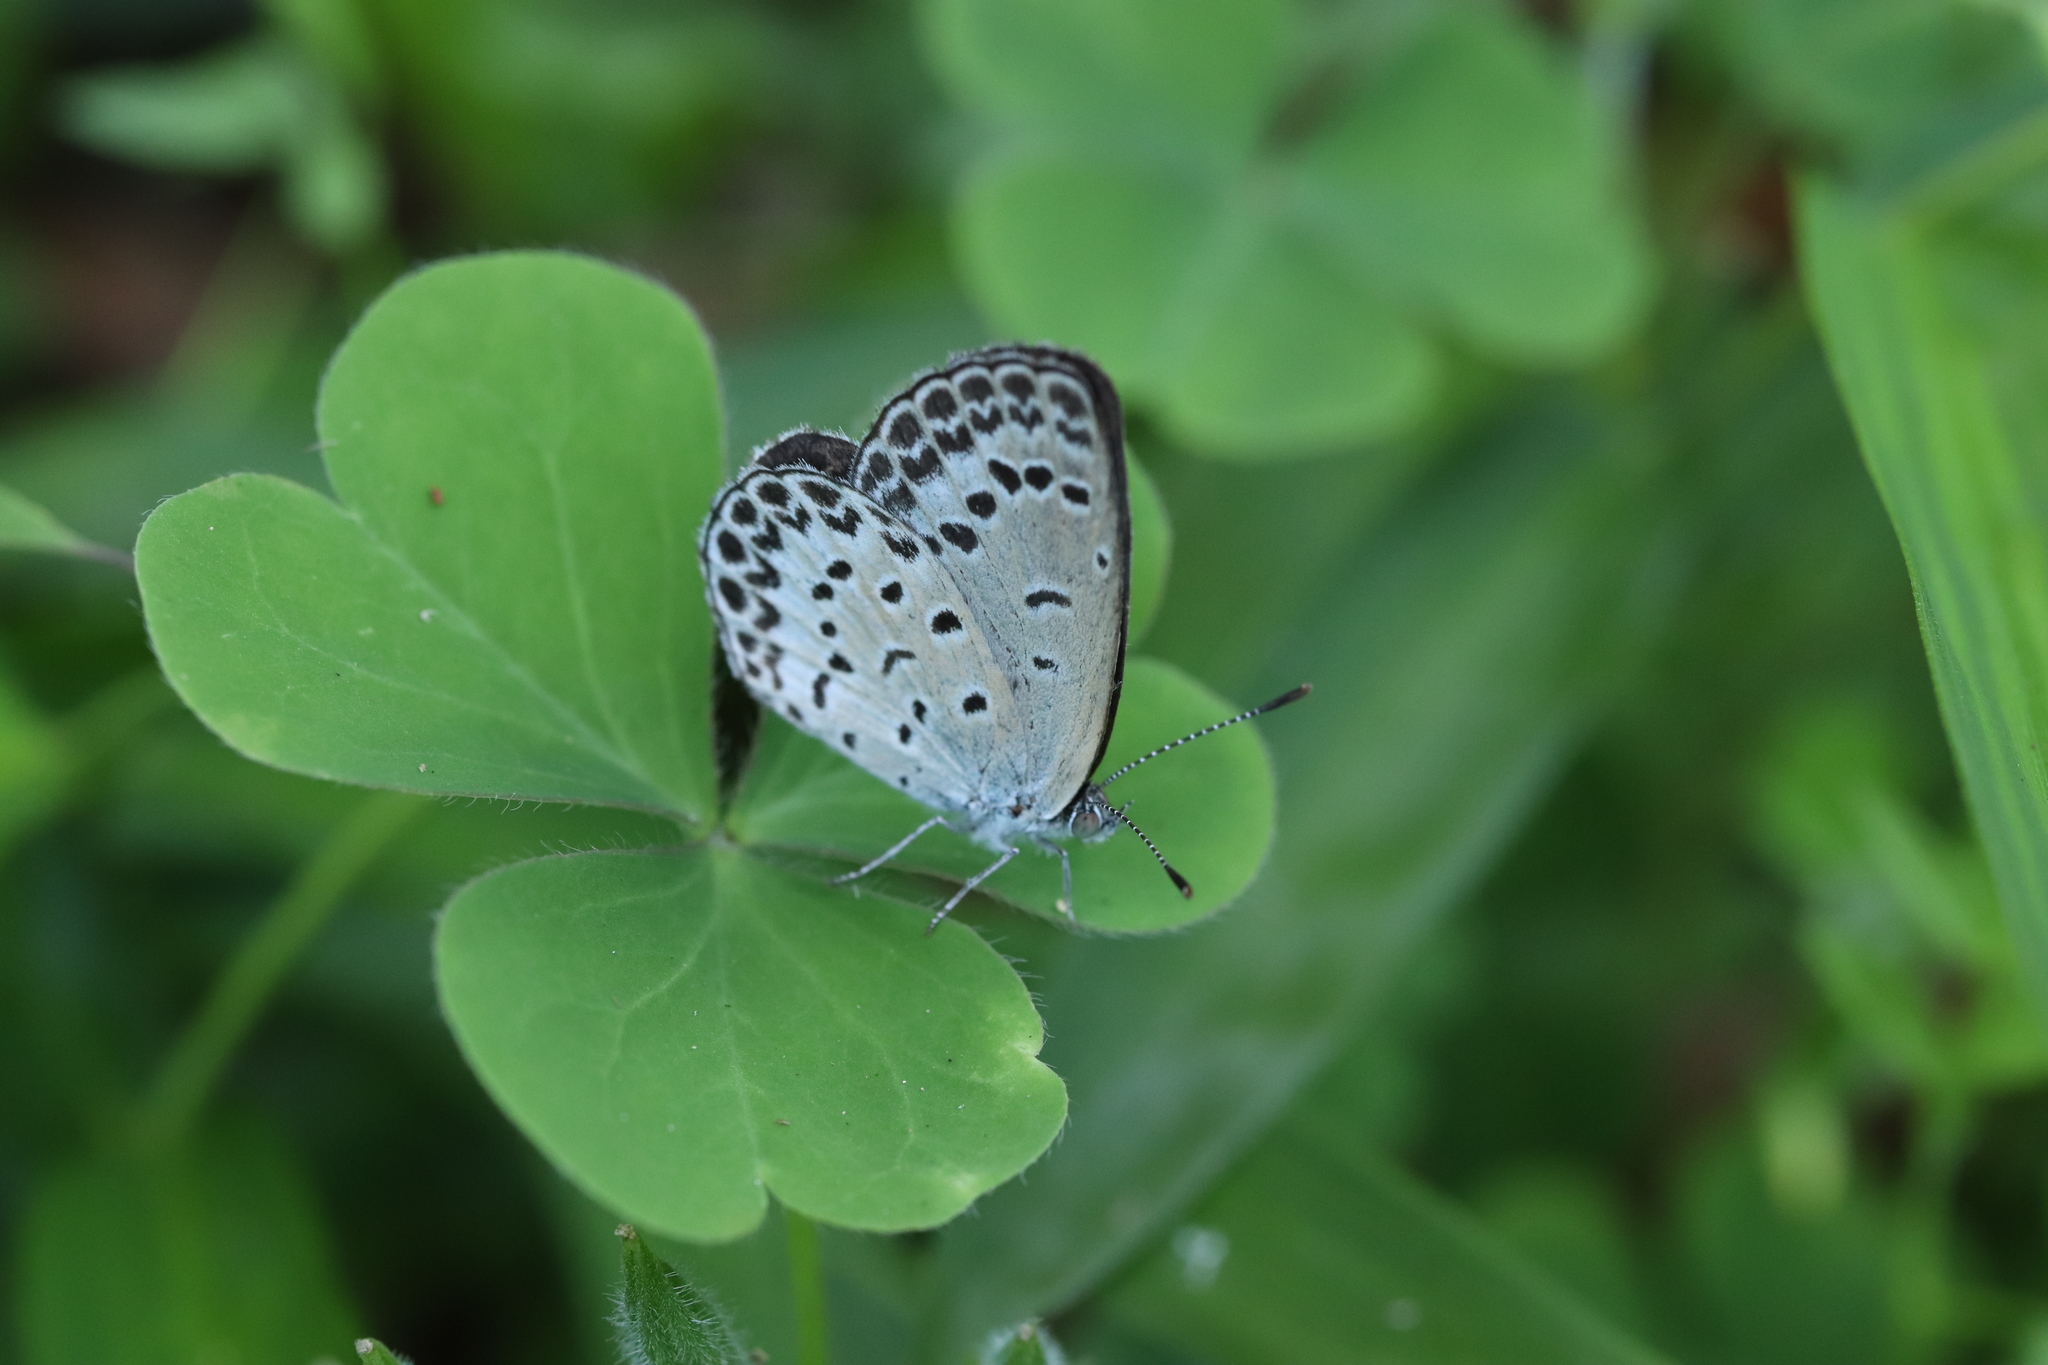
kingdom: Animalia
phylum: Arthropoda
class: Insecta
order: Lepidoptera
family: Lycaenidae
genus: Pseudozizeeria
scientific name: Pseudozizeeria maha
